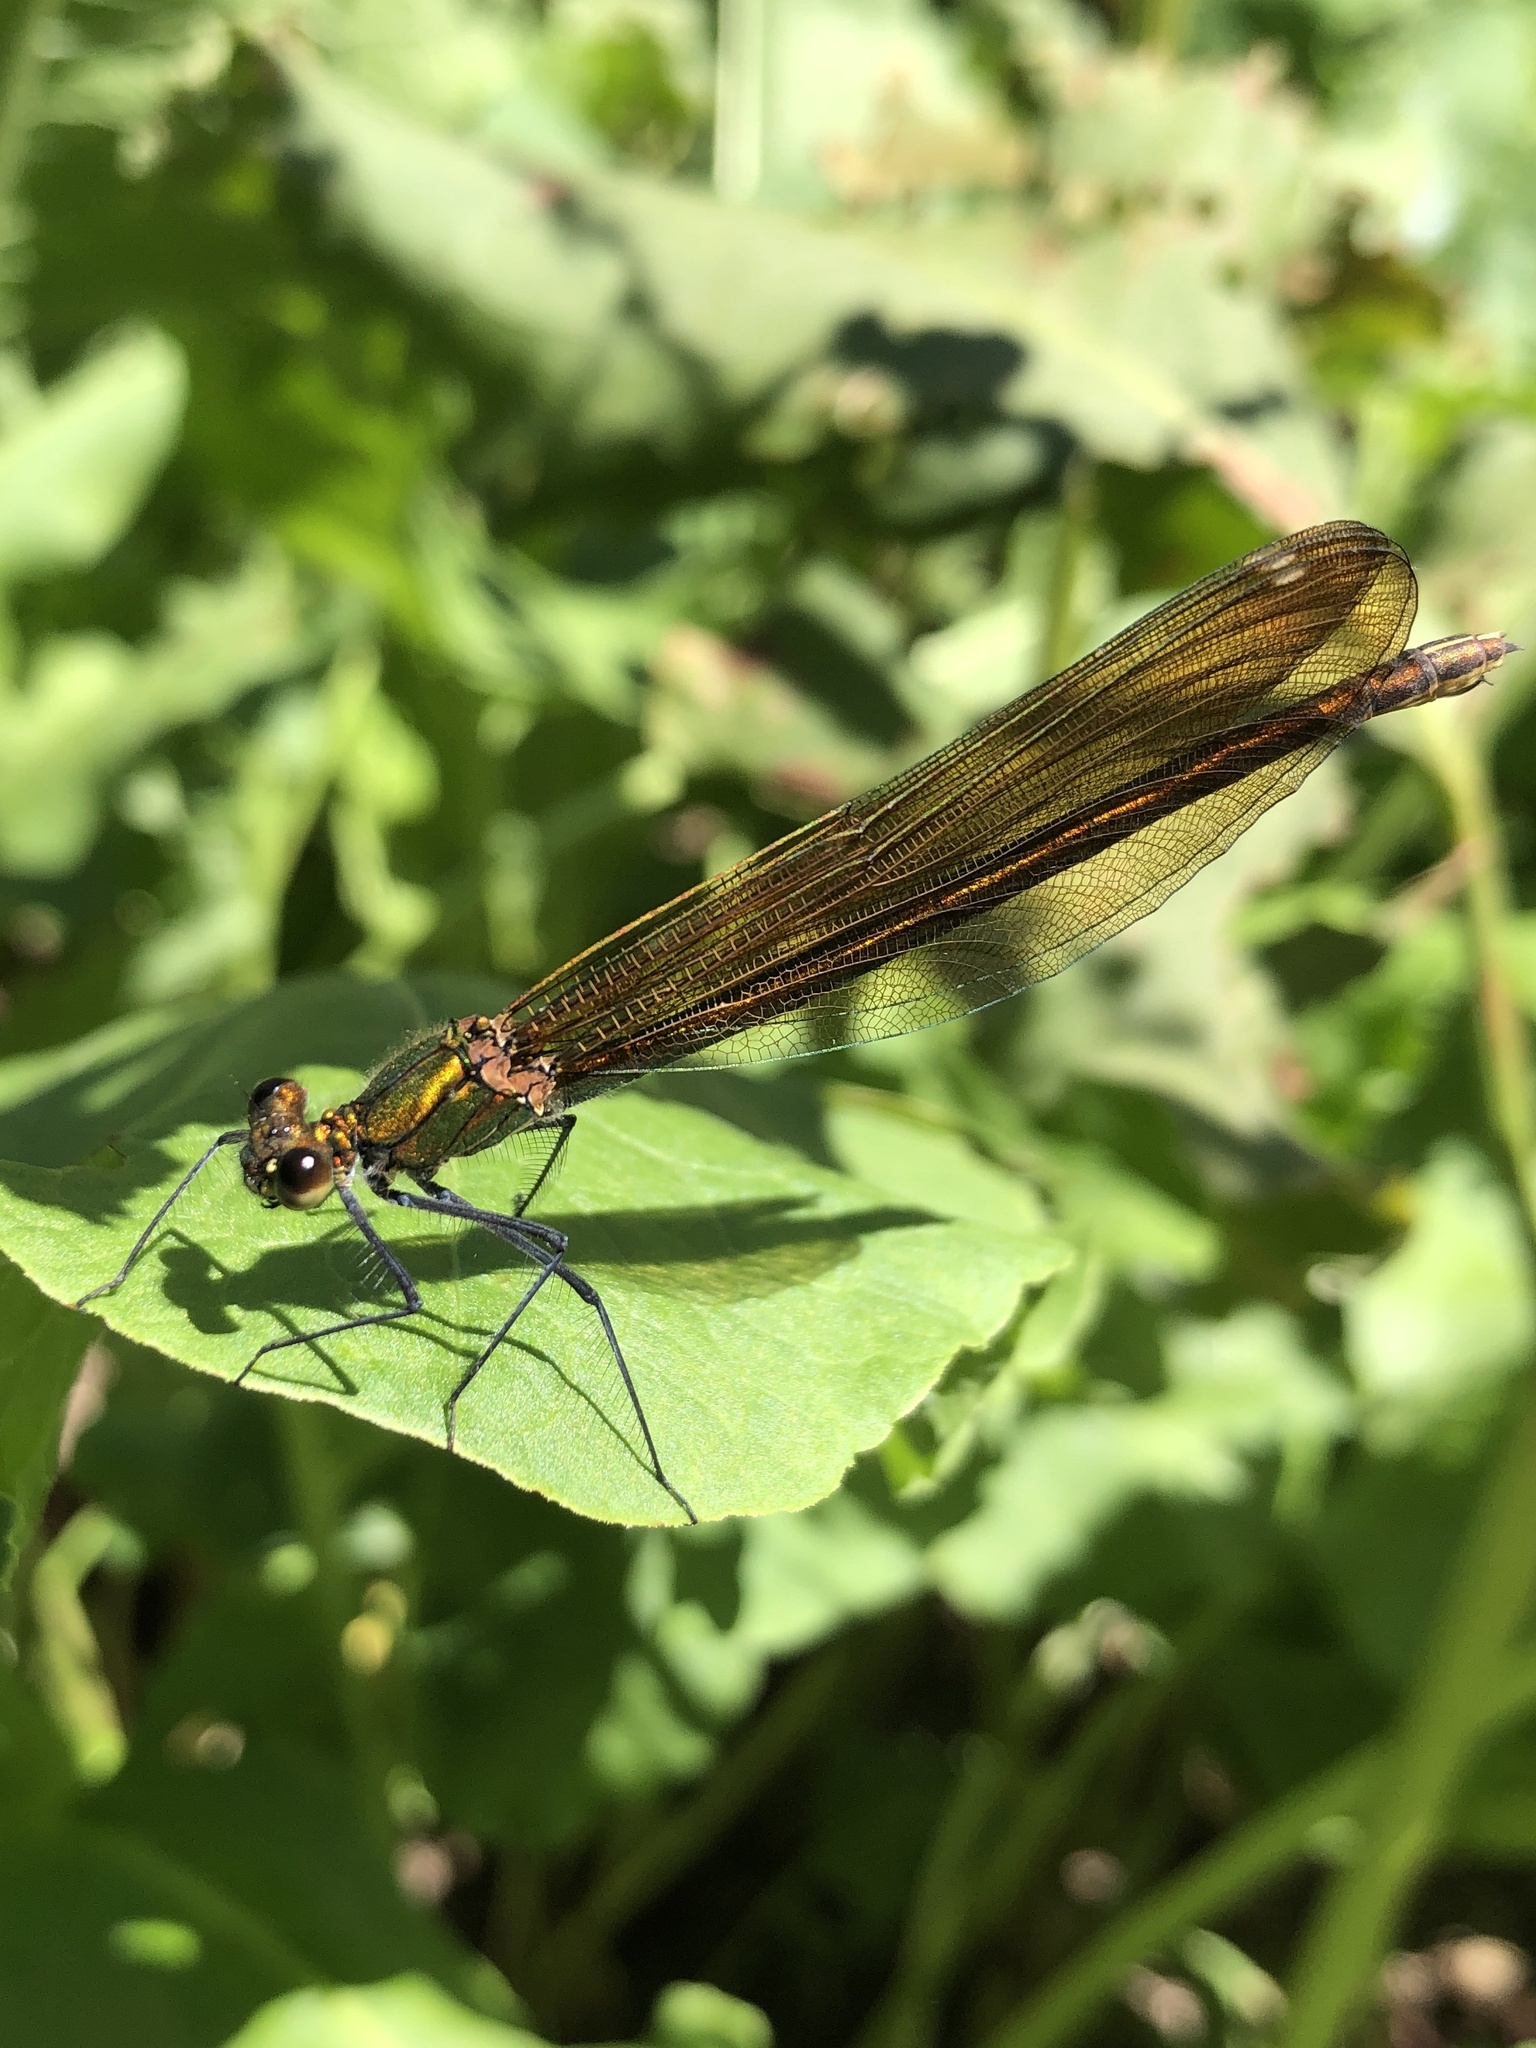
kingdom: Animalia
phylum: Arthropoda
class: Insecta
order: Odonata
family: Calopterygidae
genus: Calopteryx
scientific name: Calopteryx virgo
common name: Beautiful demoiselle
